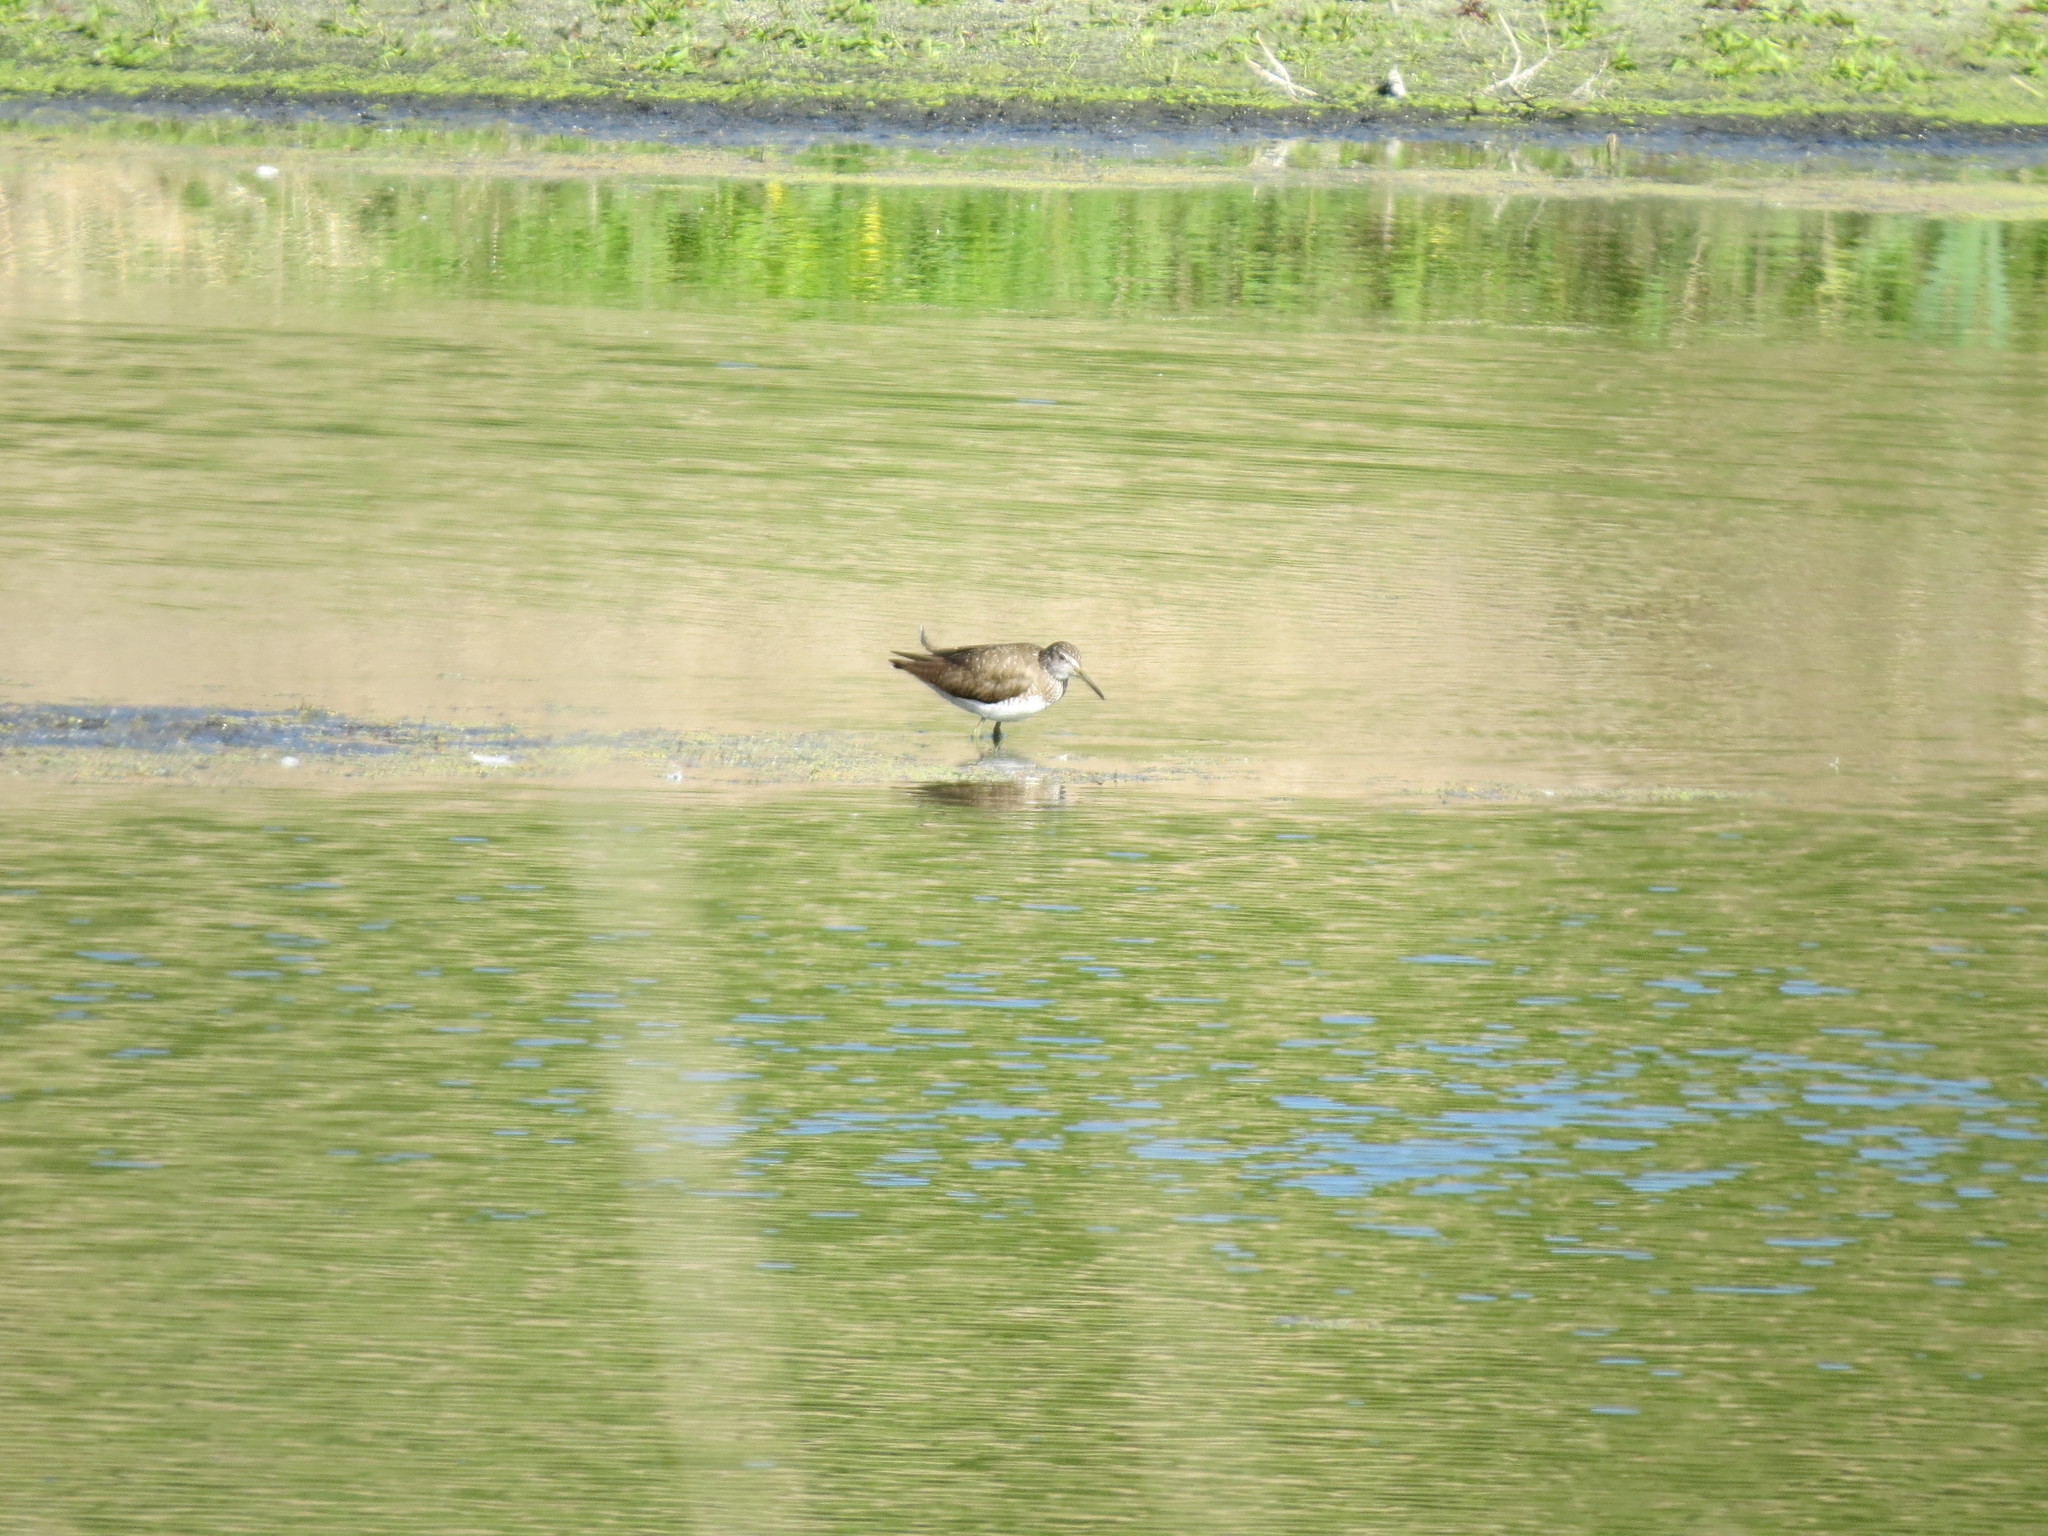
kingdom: Animalia
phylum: Chordata
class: Aves
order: Charadriiformes
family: Scolopacidae
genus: Tringa
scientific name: Tringa ochropus
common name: Green sandpiper
